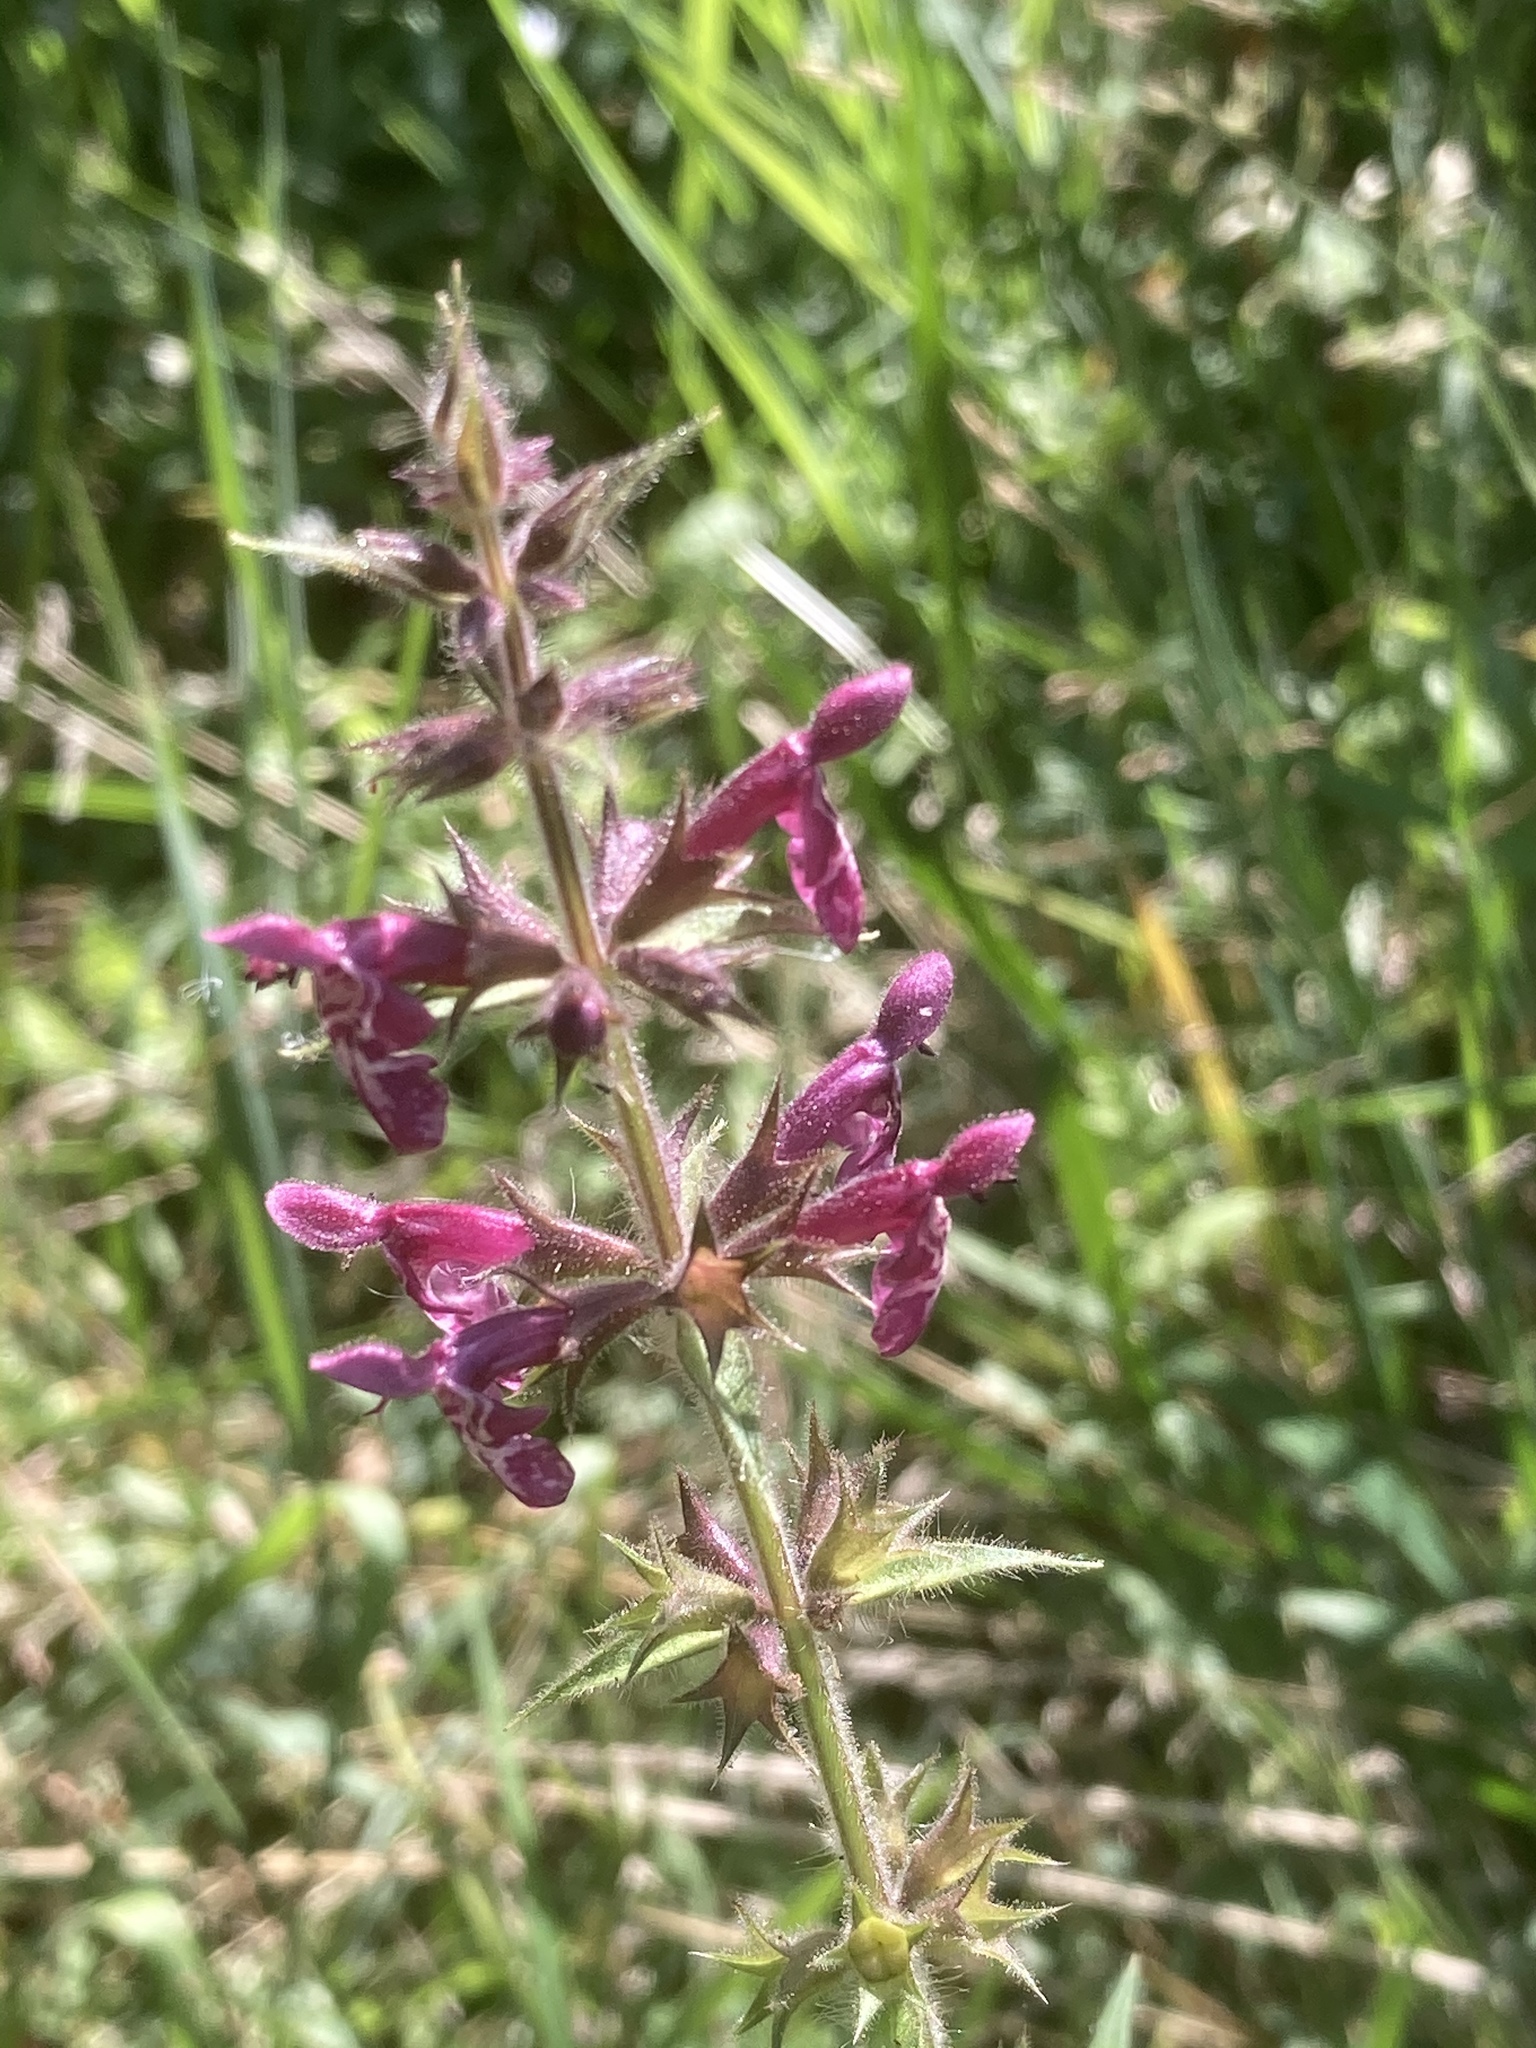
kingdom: Plantae
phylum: Tracheophyta
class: Magnoliopsida
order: Lamiales
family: Lamiaceae
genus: Stachys
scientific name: Stachys sylvatica
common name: Hedge woundwort
